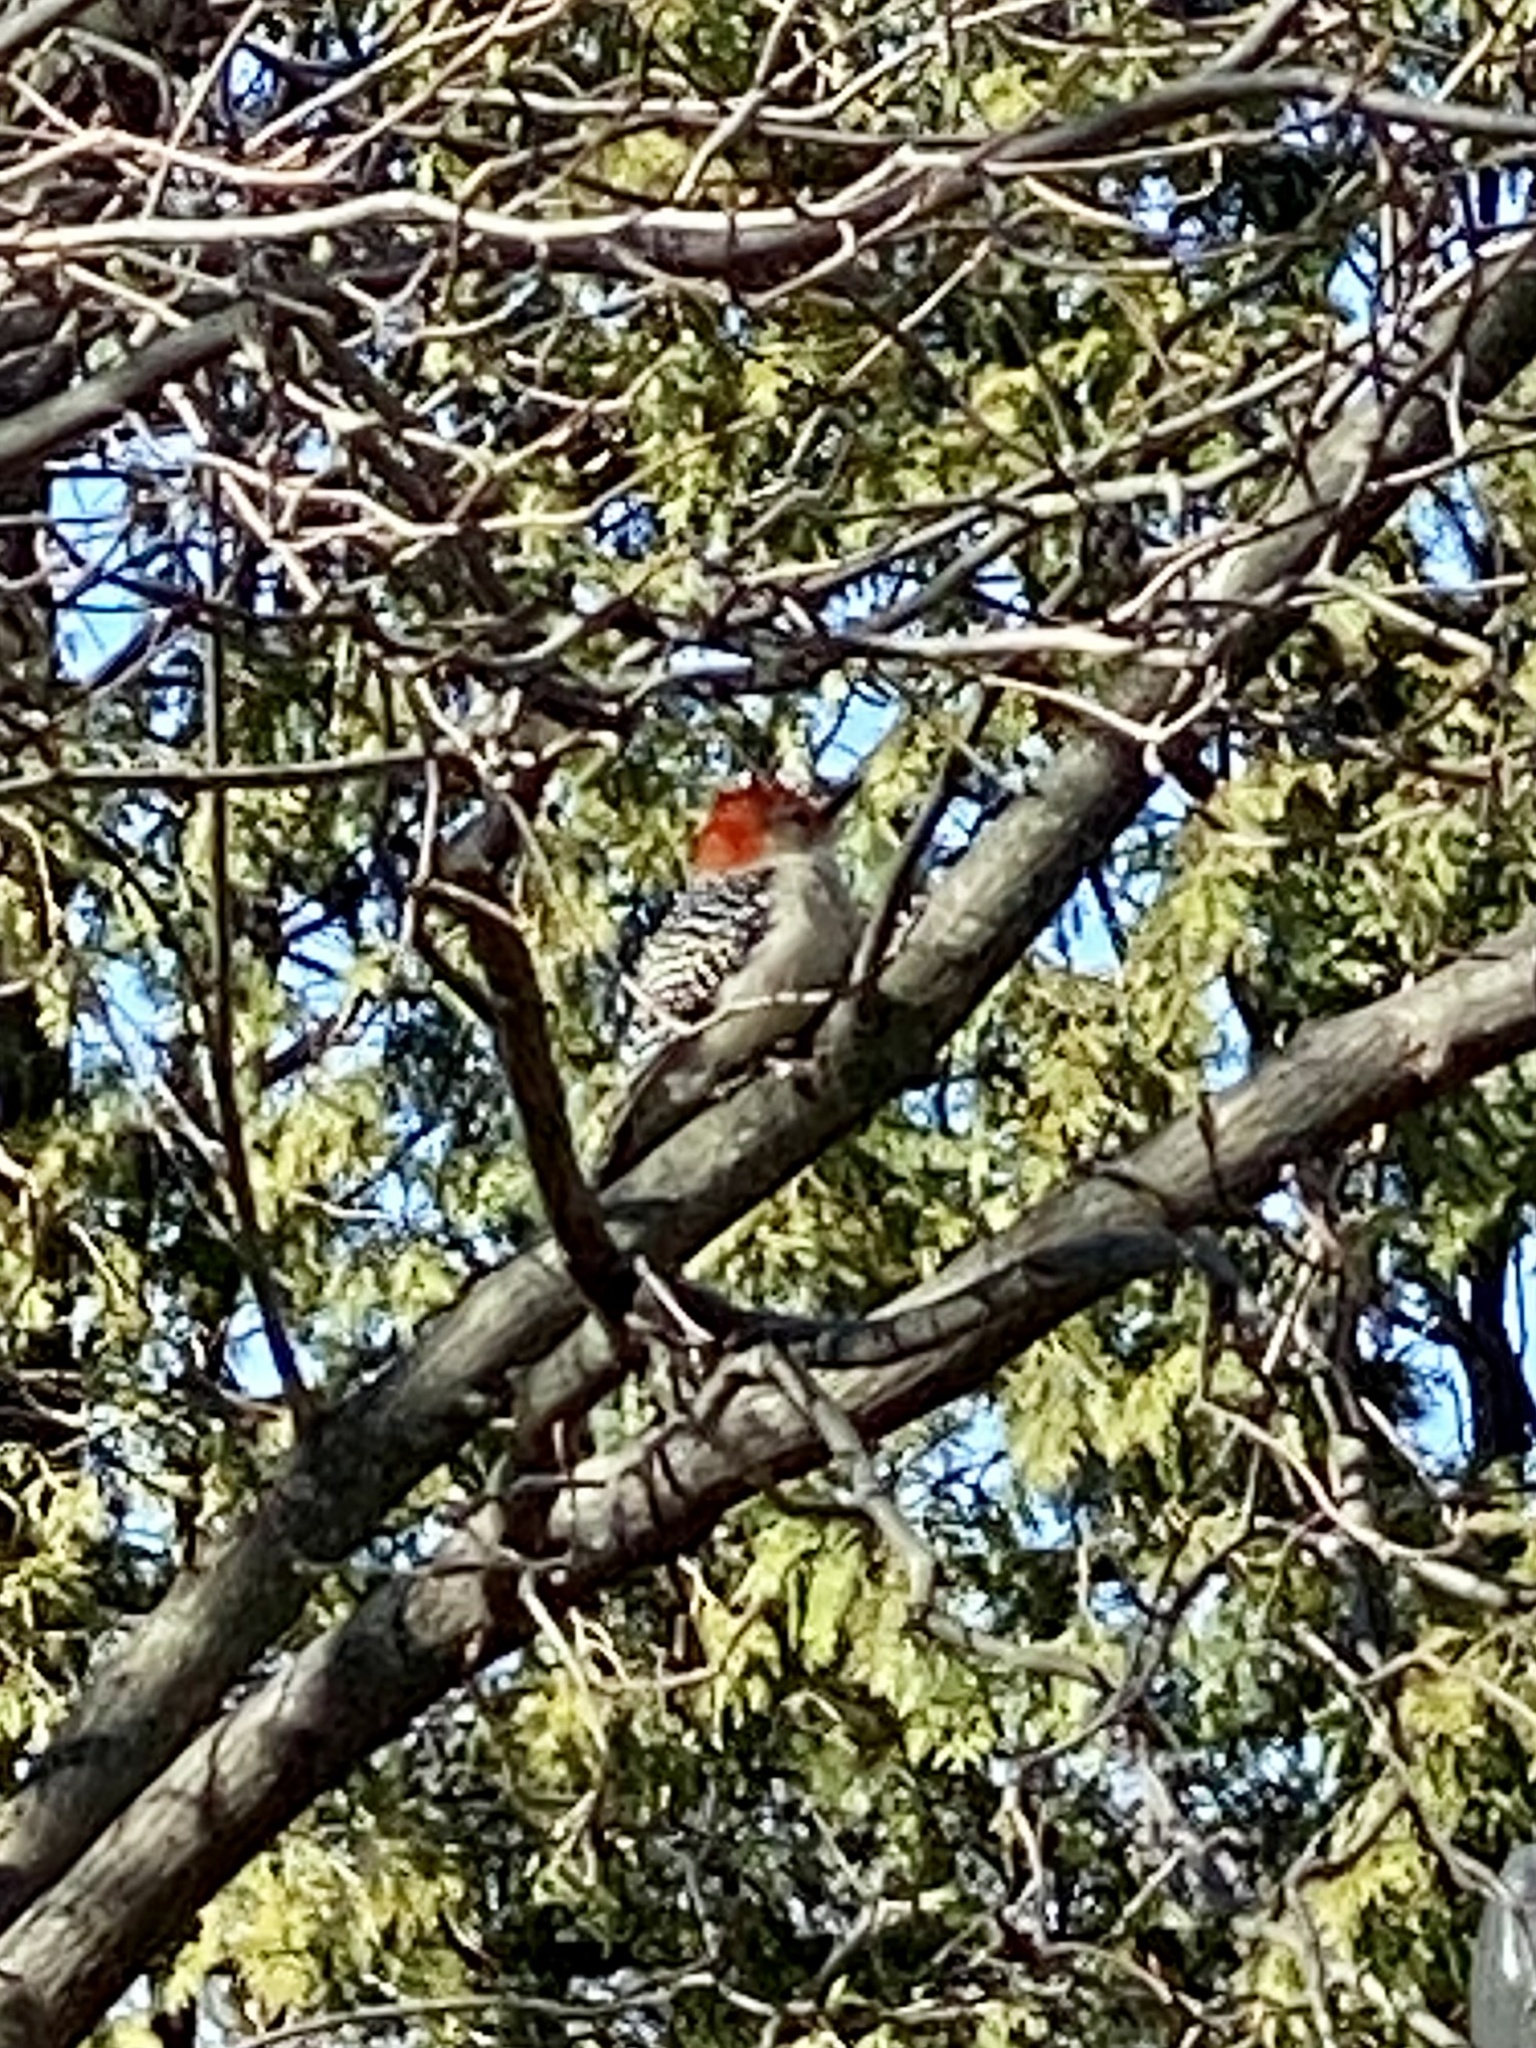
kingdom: Animalia
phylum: Chordata
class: Aves
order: Piciformes
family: Picidae
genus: Melanerpes
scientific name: Melanerpes carolinus
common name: Red-bellied woodpecker
